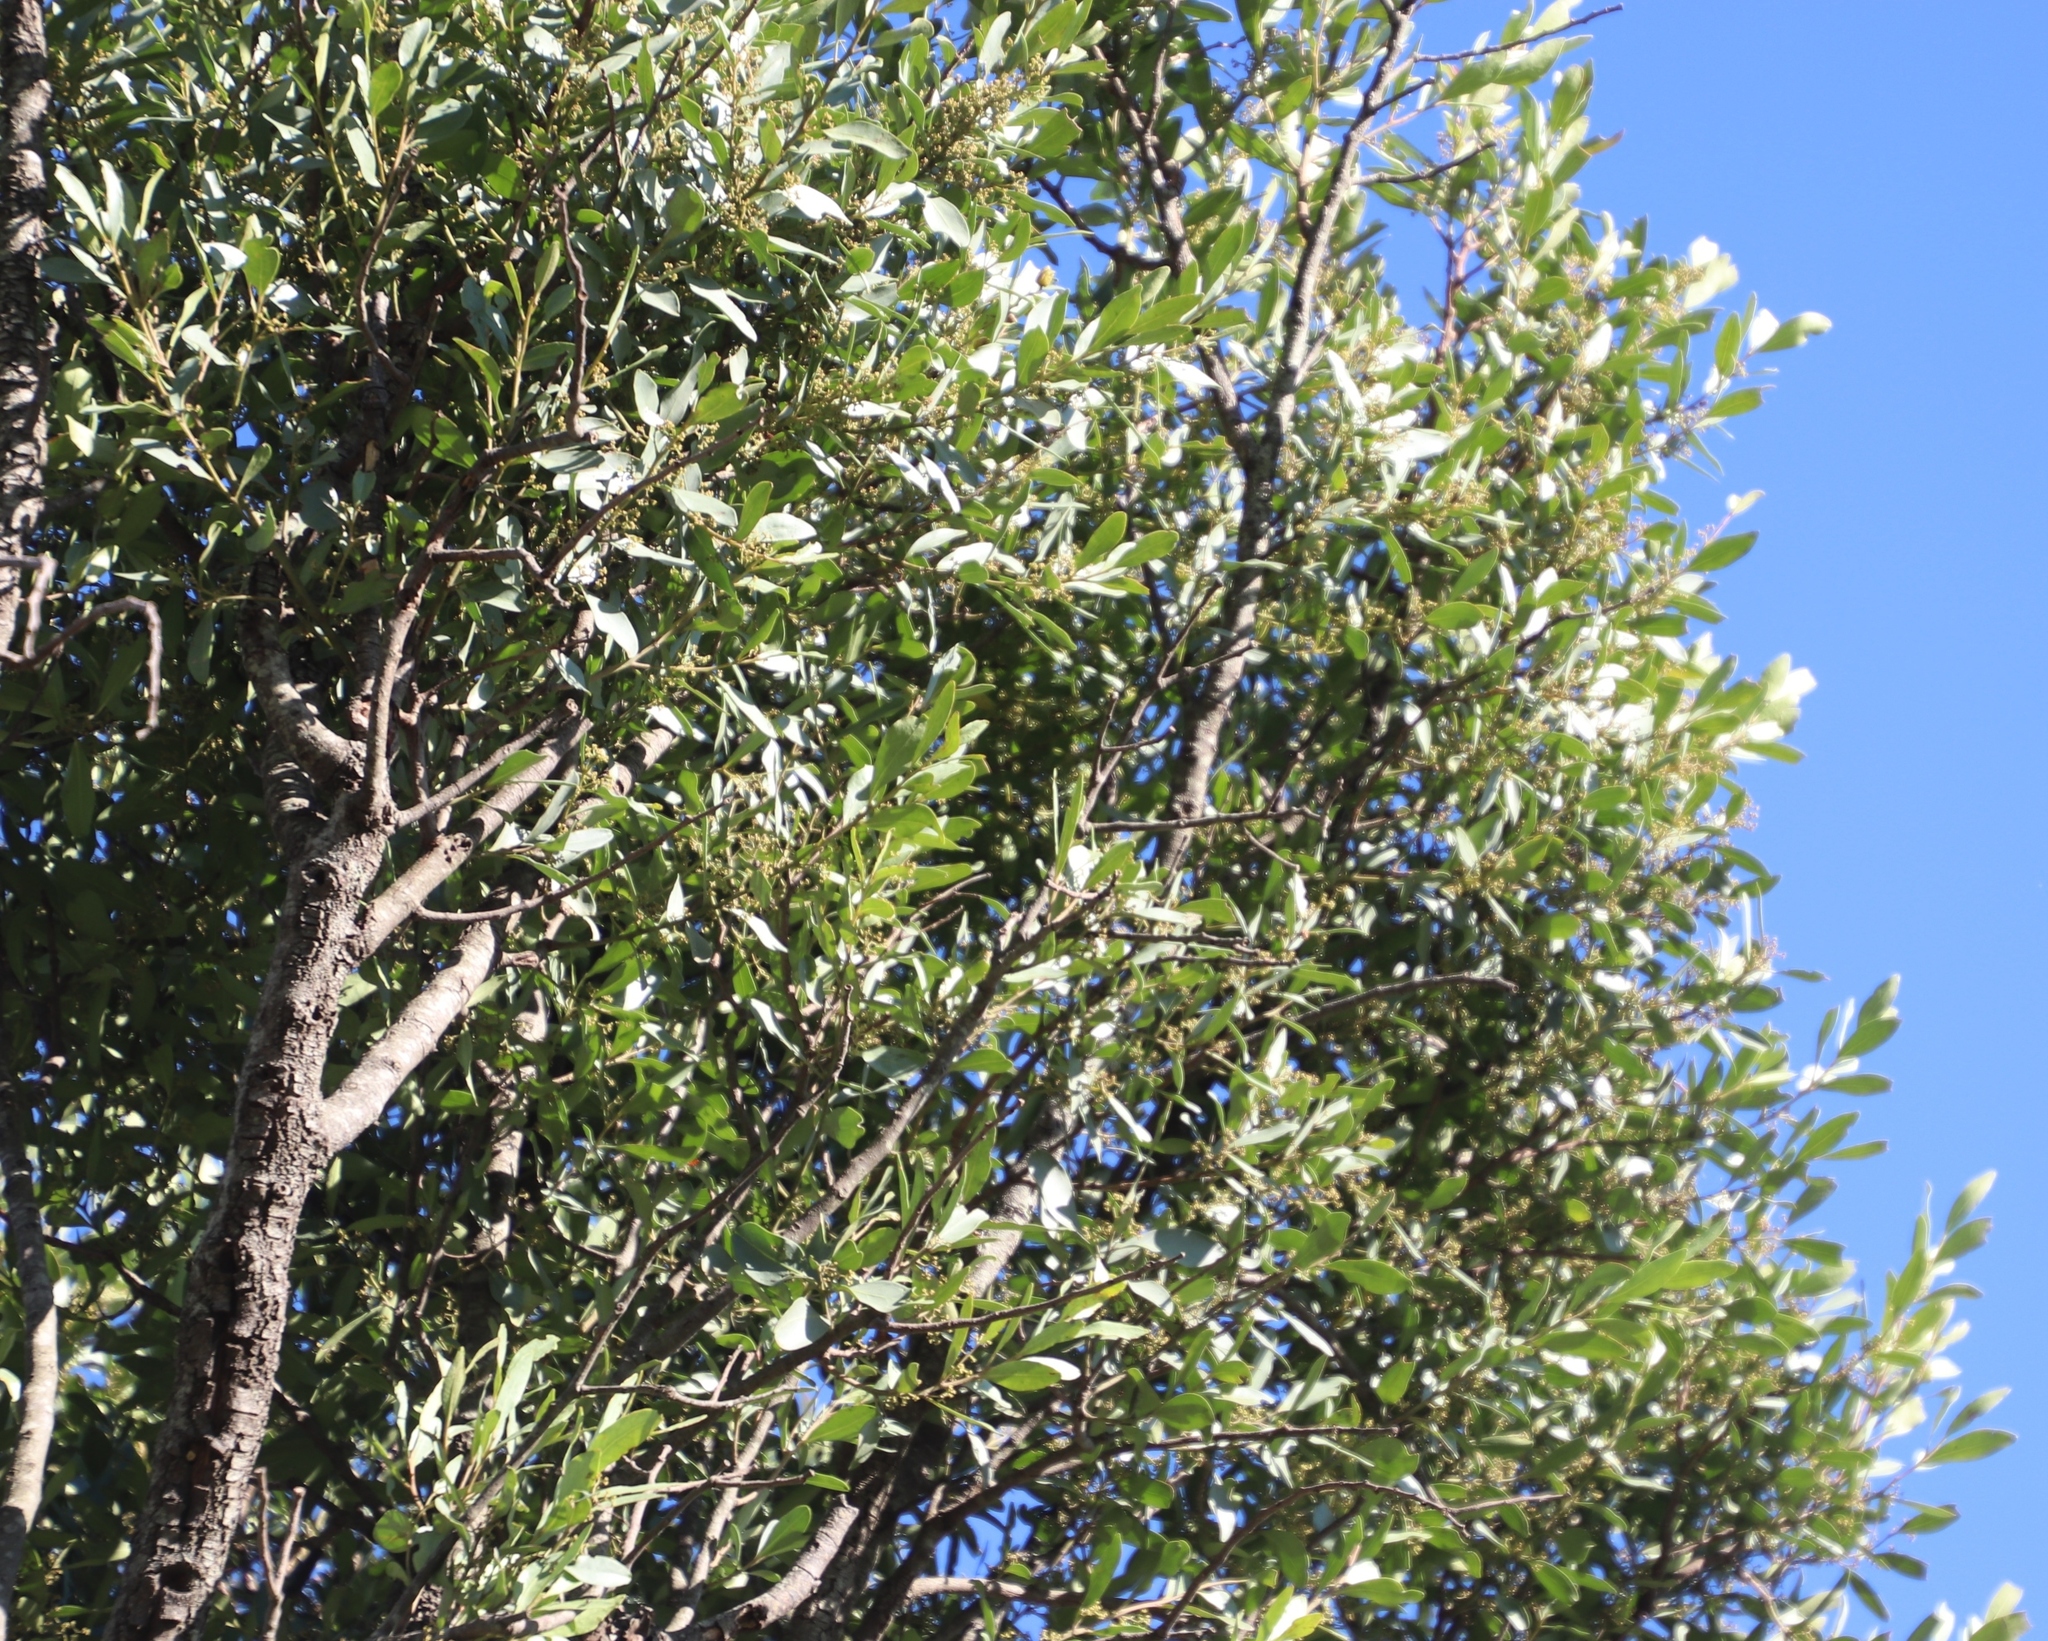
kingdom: Plantae
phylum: Tracheophyta
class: Magnoliopsida
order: Celastrales
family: Celastraceae
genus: Pterocelastrus
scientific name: Pterocelastrus echinatus
